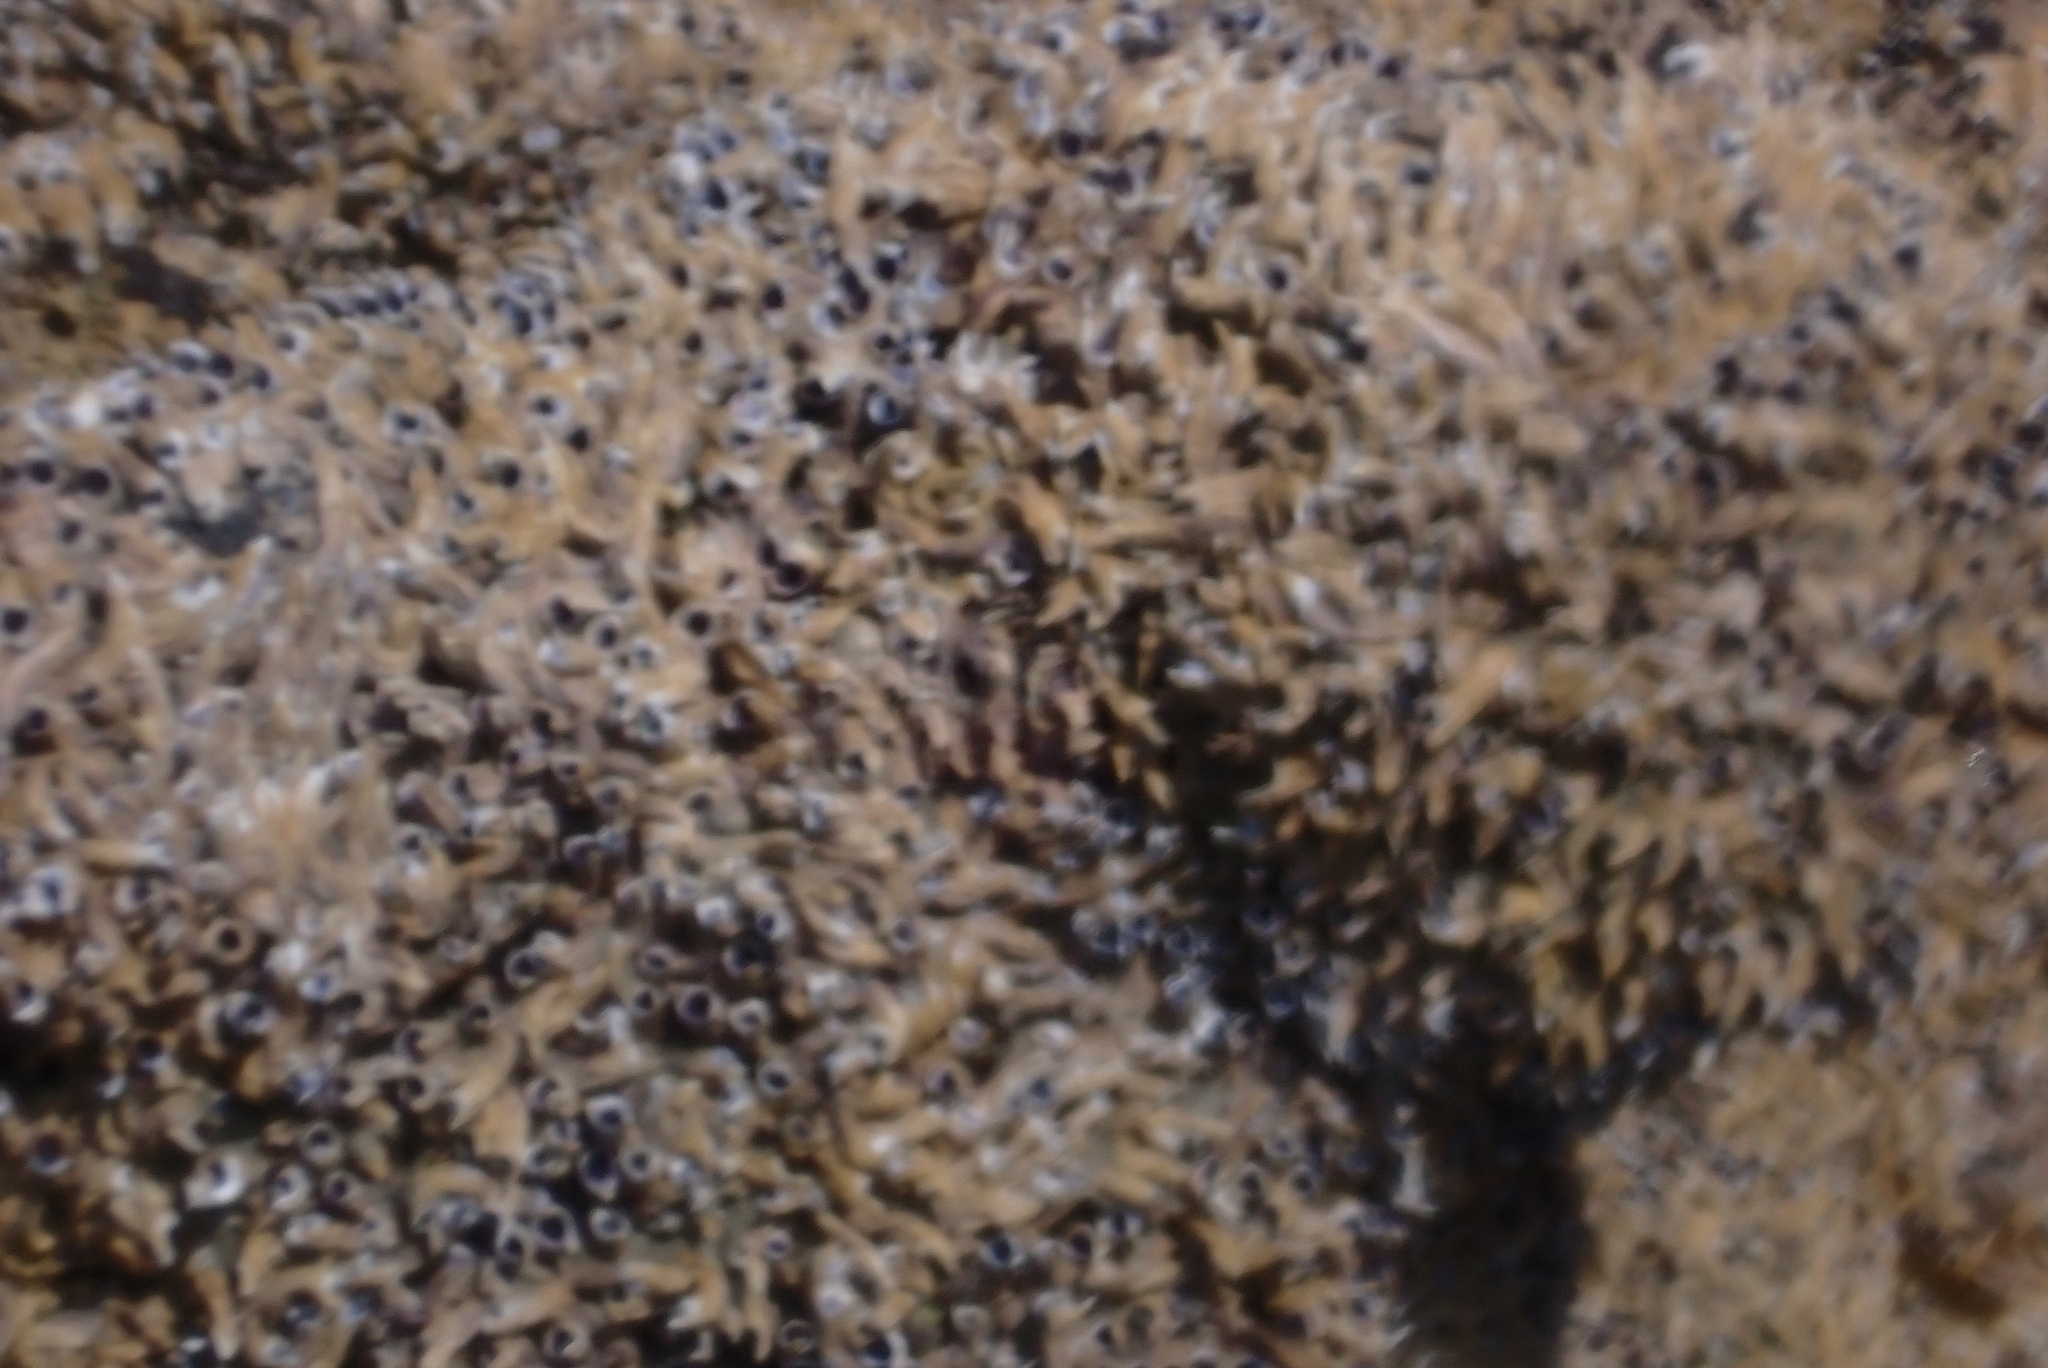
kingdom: Animalia
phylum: Annelida
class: Polychaeta
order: Sabellida
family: Serpulidae
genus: Spirobranchus
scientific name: Spirobranchus cariniferus
